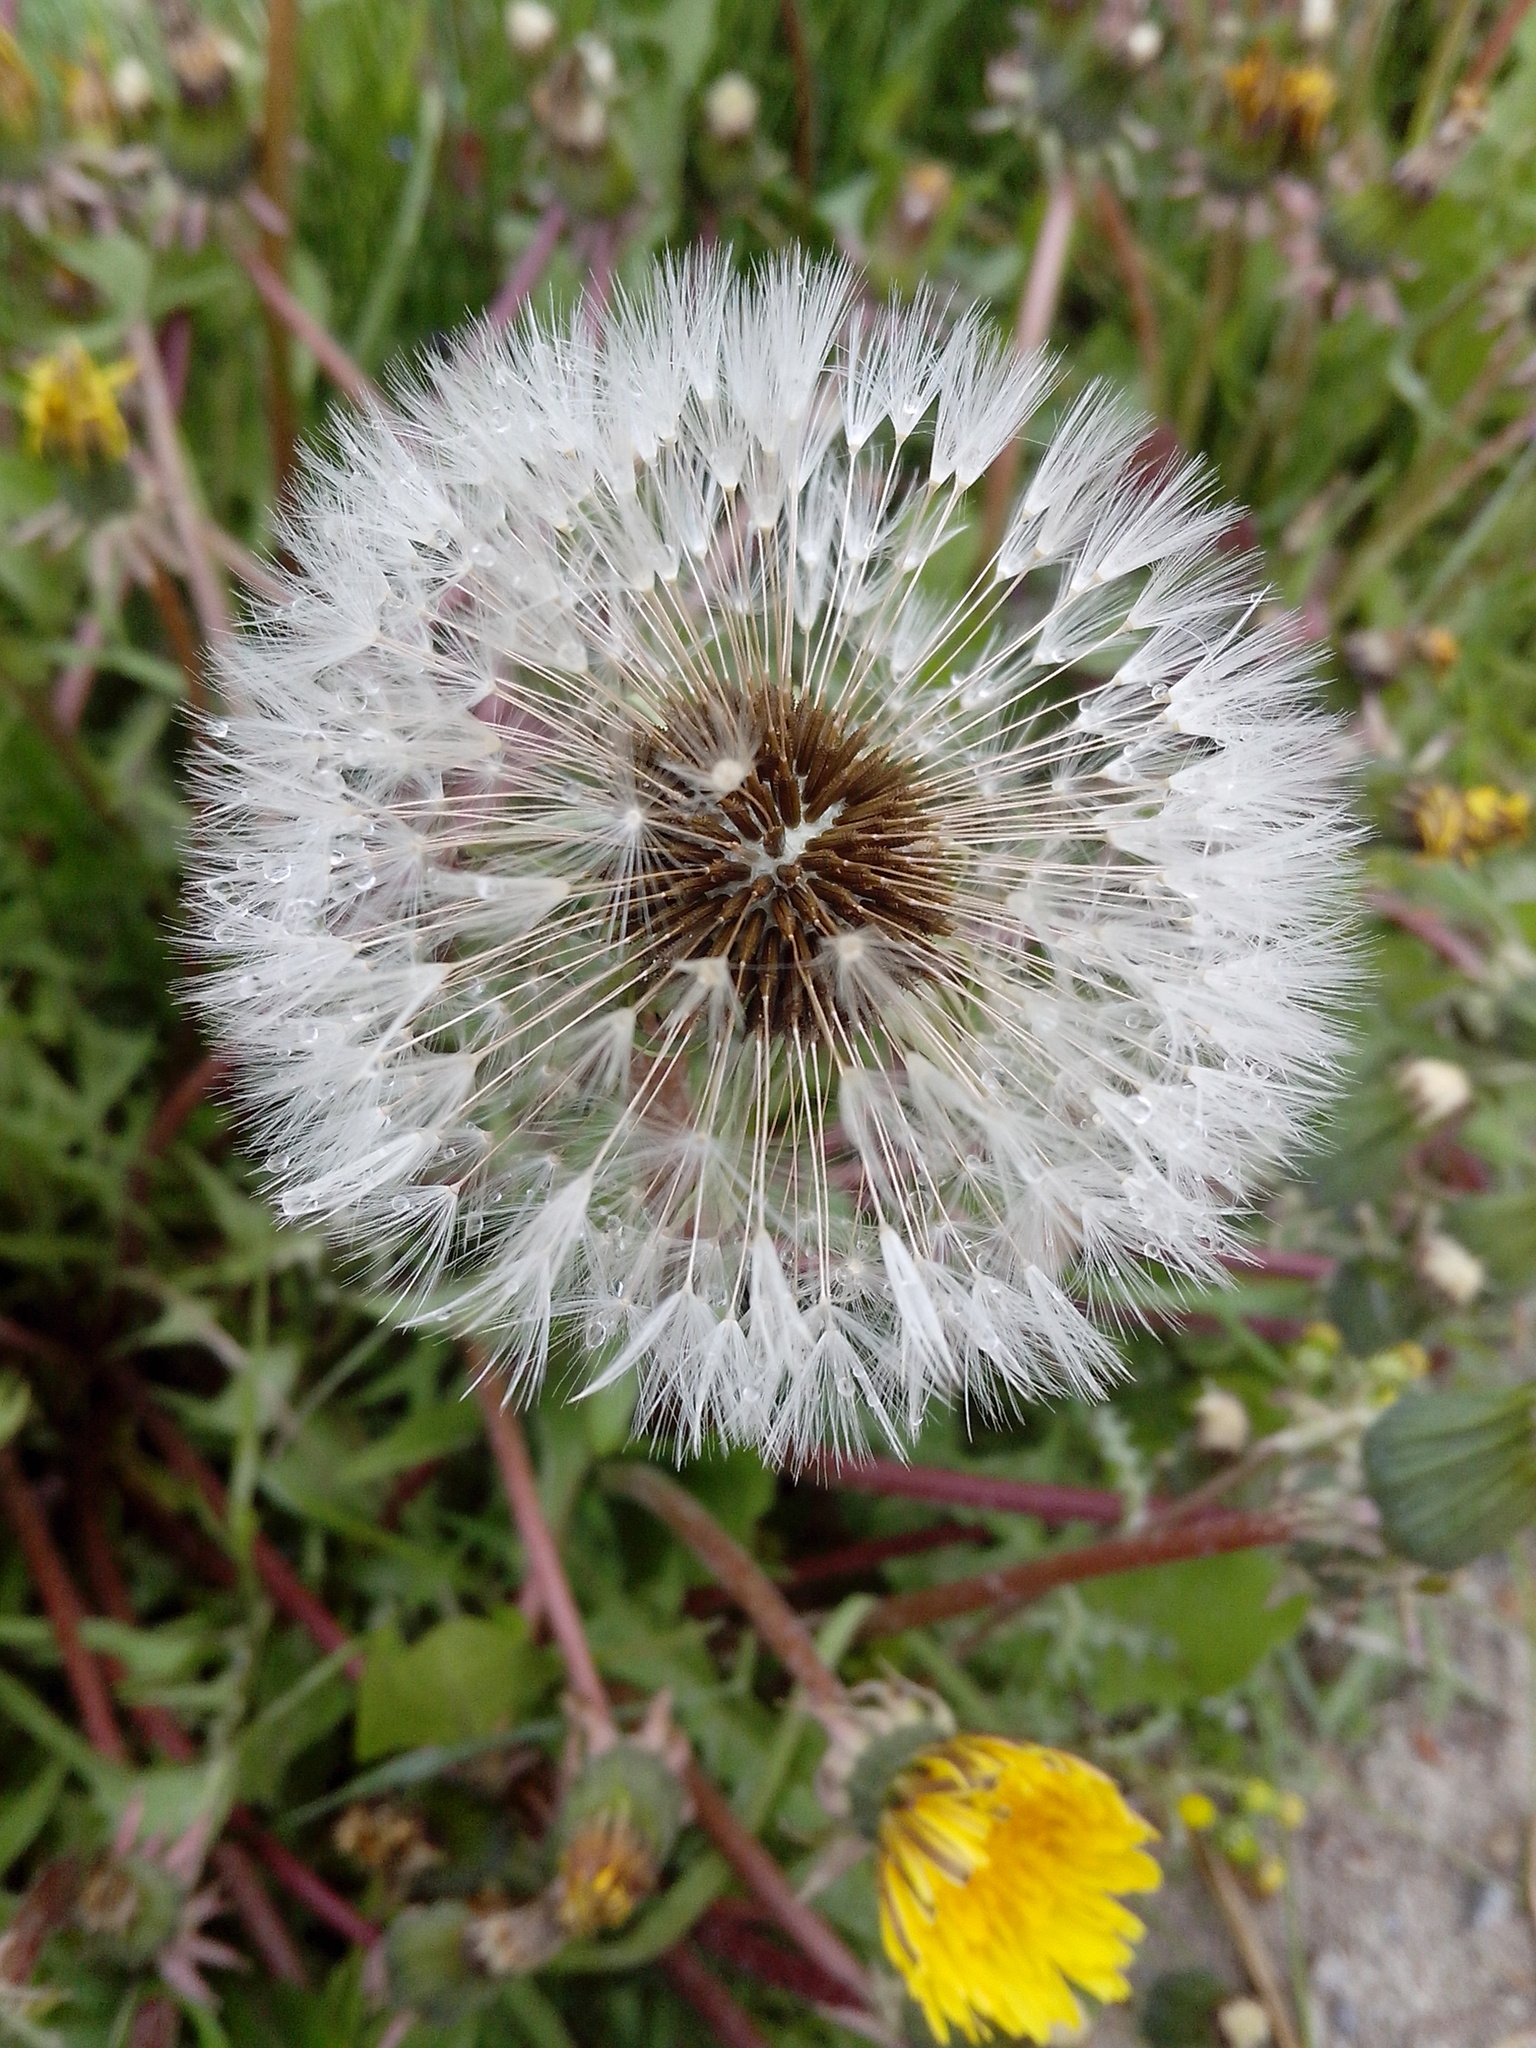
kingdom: Plantae
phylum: Tracheophyta
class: Magnoliopsida
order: Asterales
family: Asteraceae
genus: Taraxacum
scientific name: Taraxacum officinale
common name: Common dandelion
